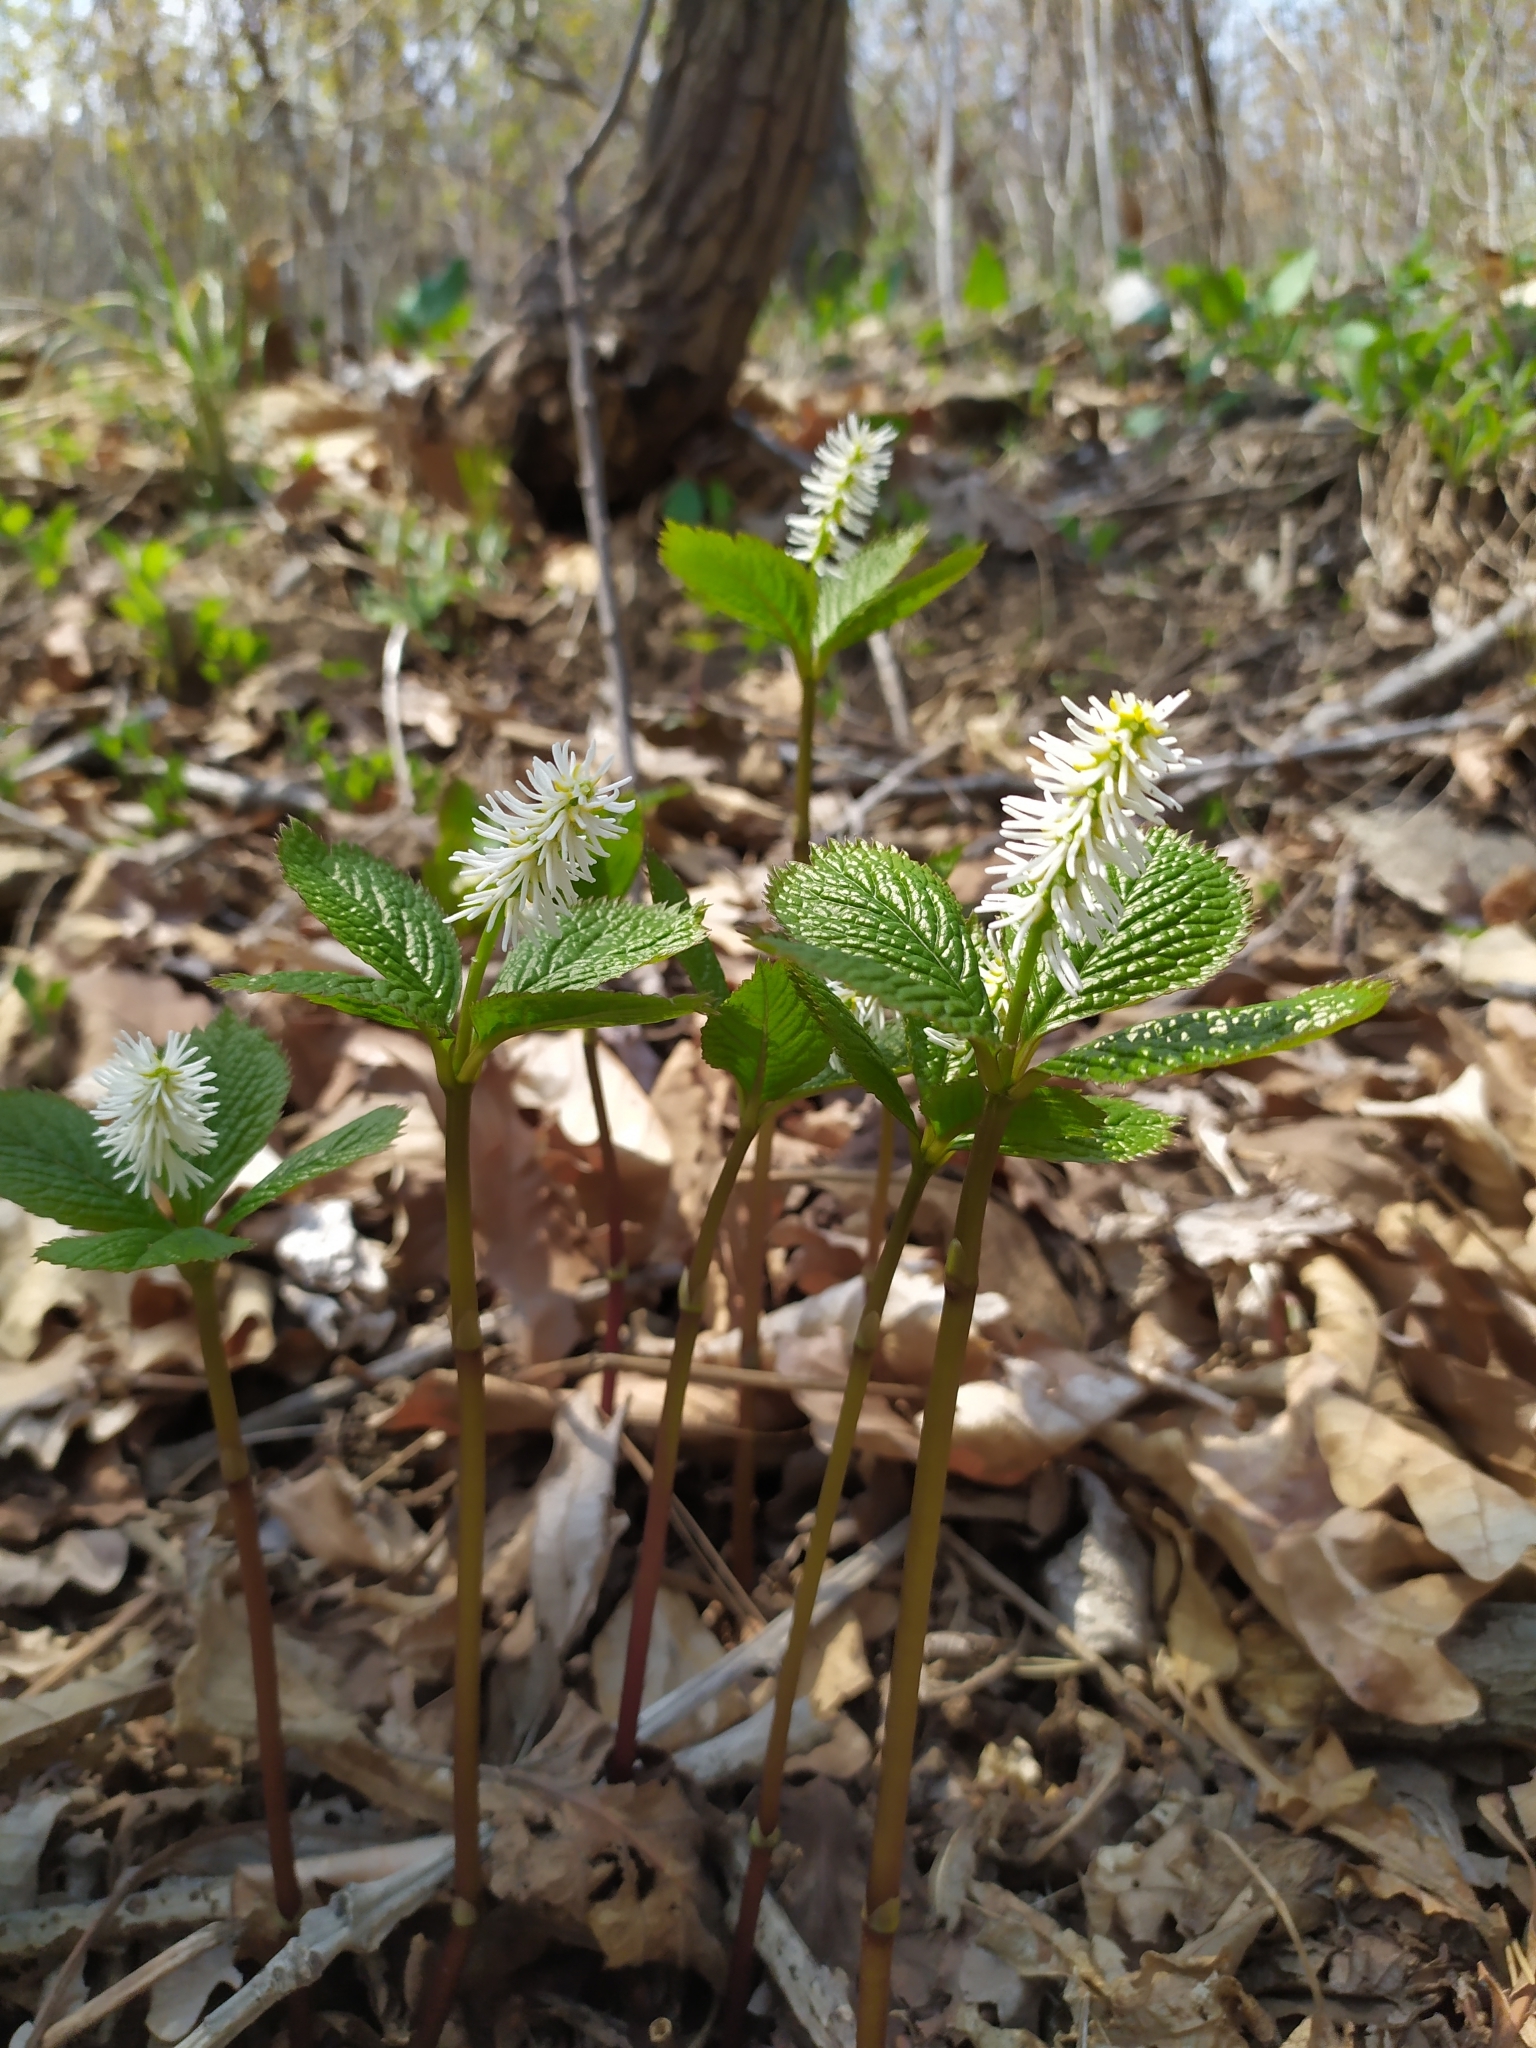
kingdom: Plantae
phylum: Tracheophyta
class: Magnoliopsida
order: Chloranthales
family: Chloranthaceae
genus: Chloranthus
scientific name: Chloranthus quadrifolius
